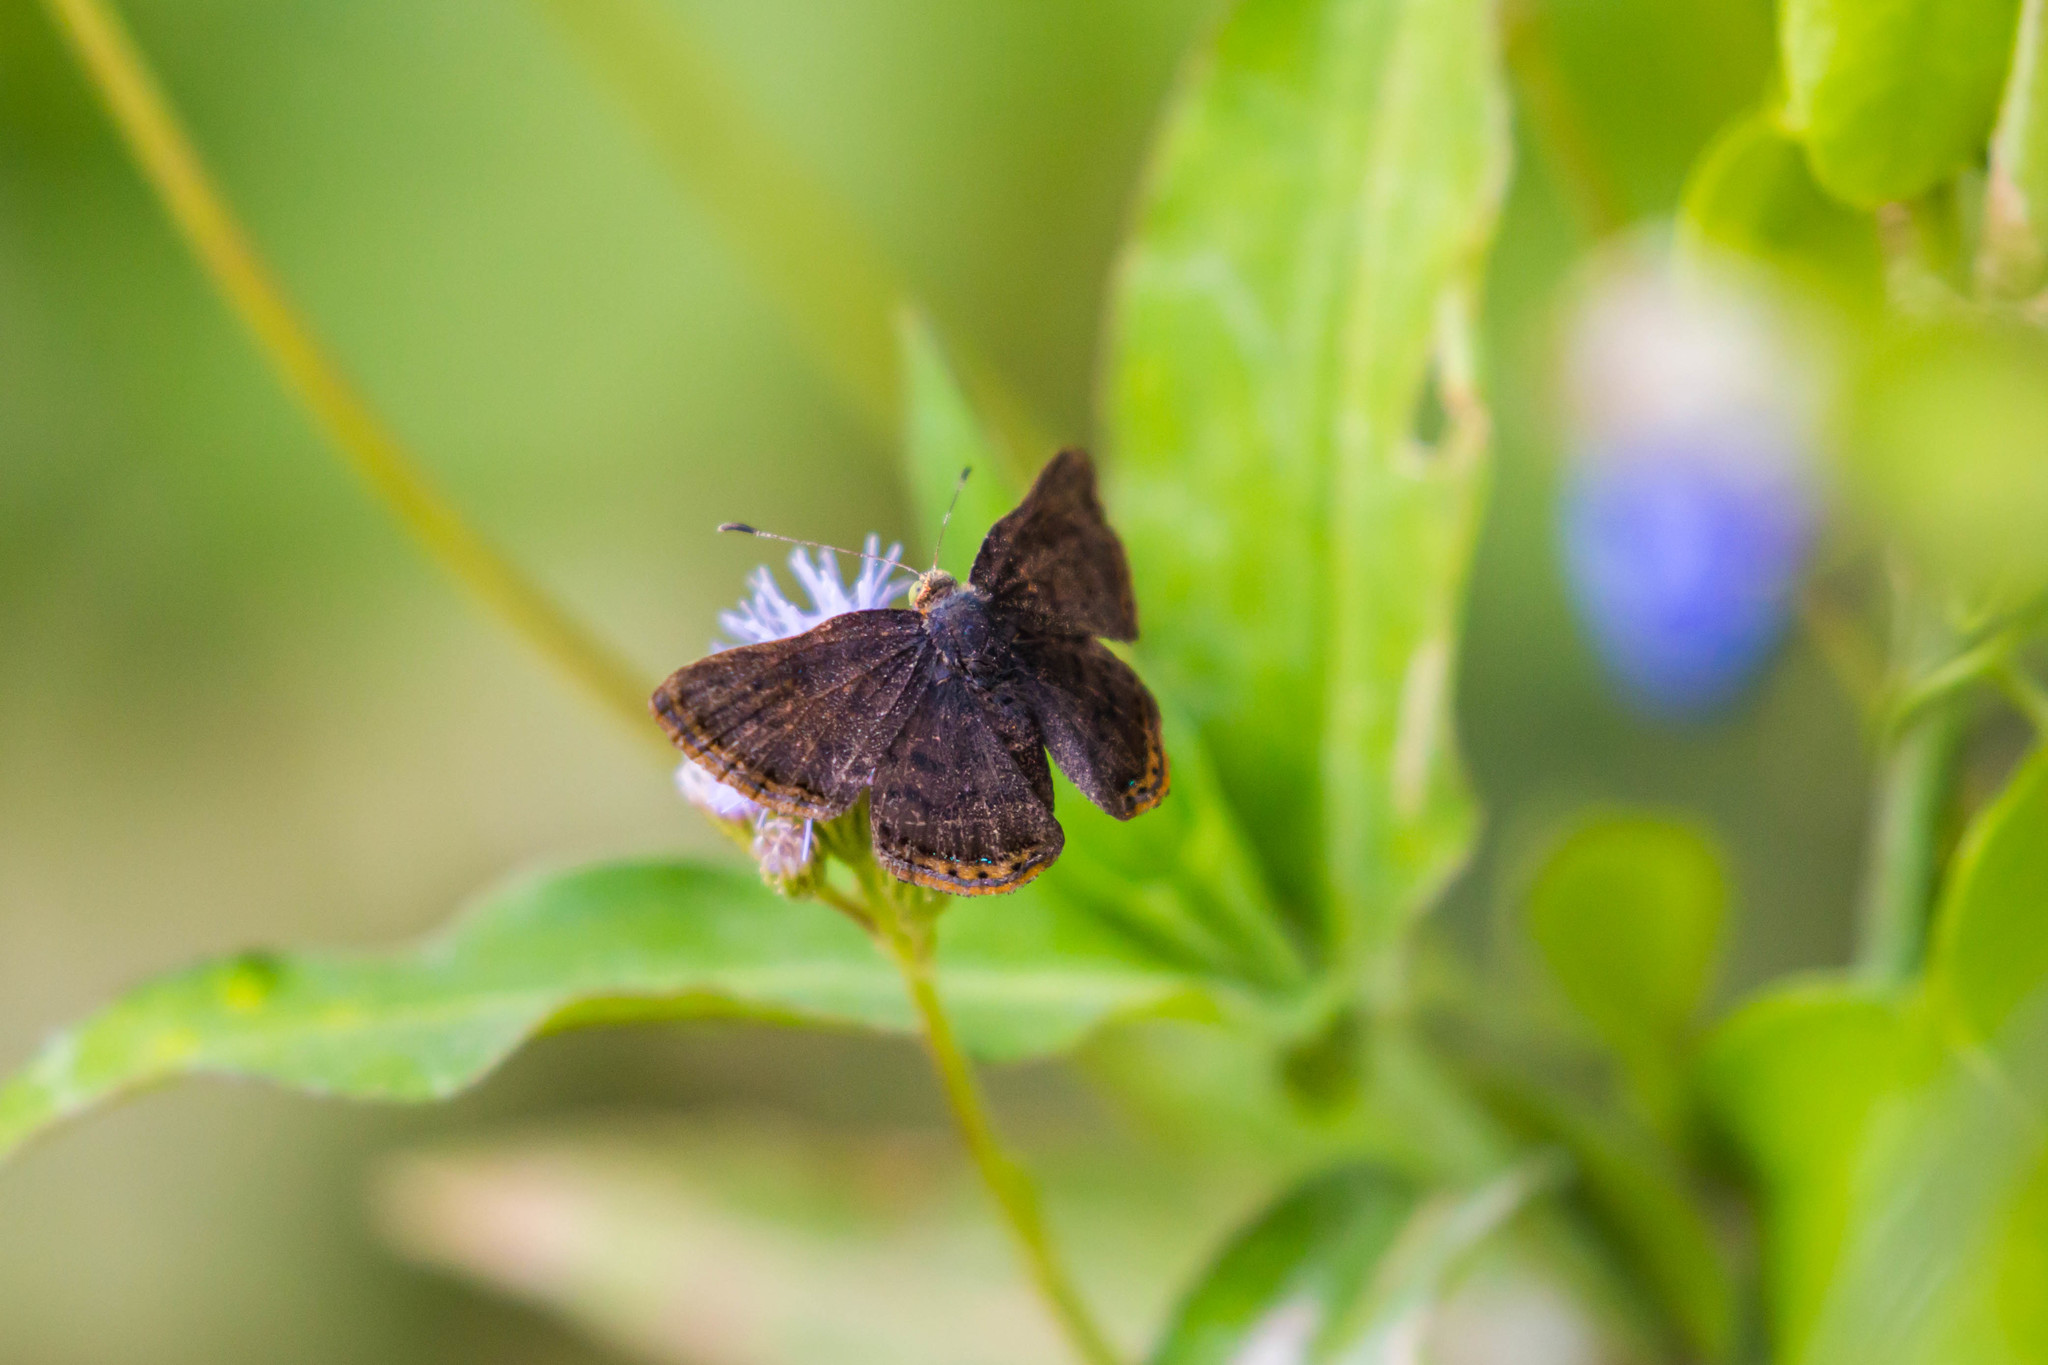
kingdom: Animalia
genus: Caria
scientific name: Caria ino
